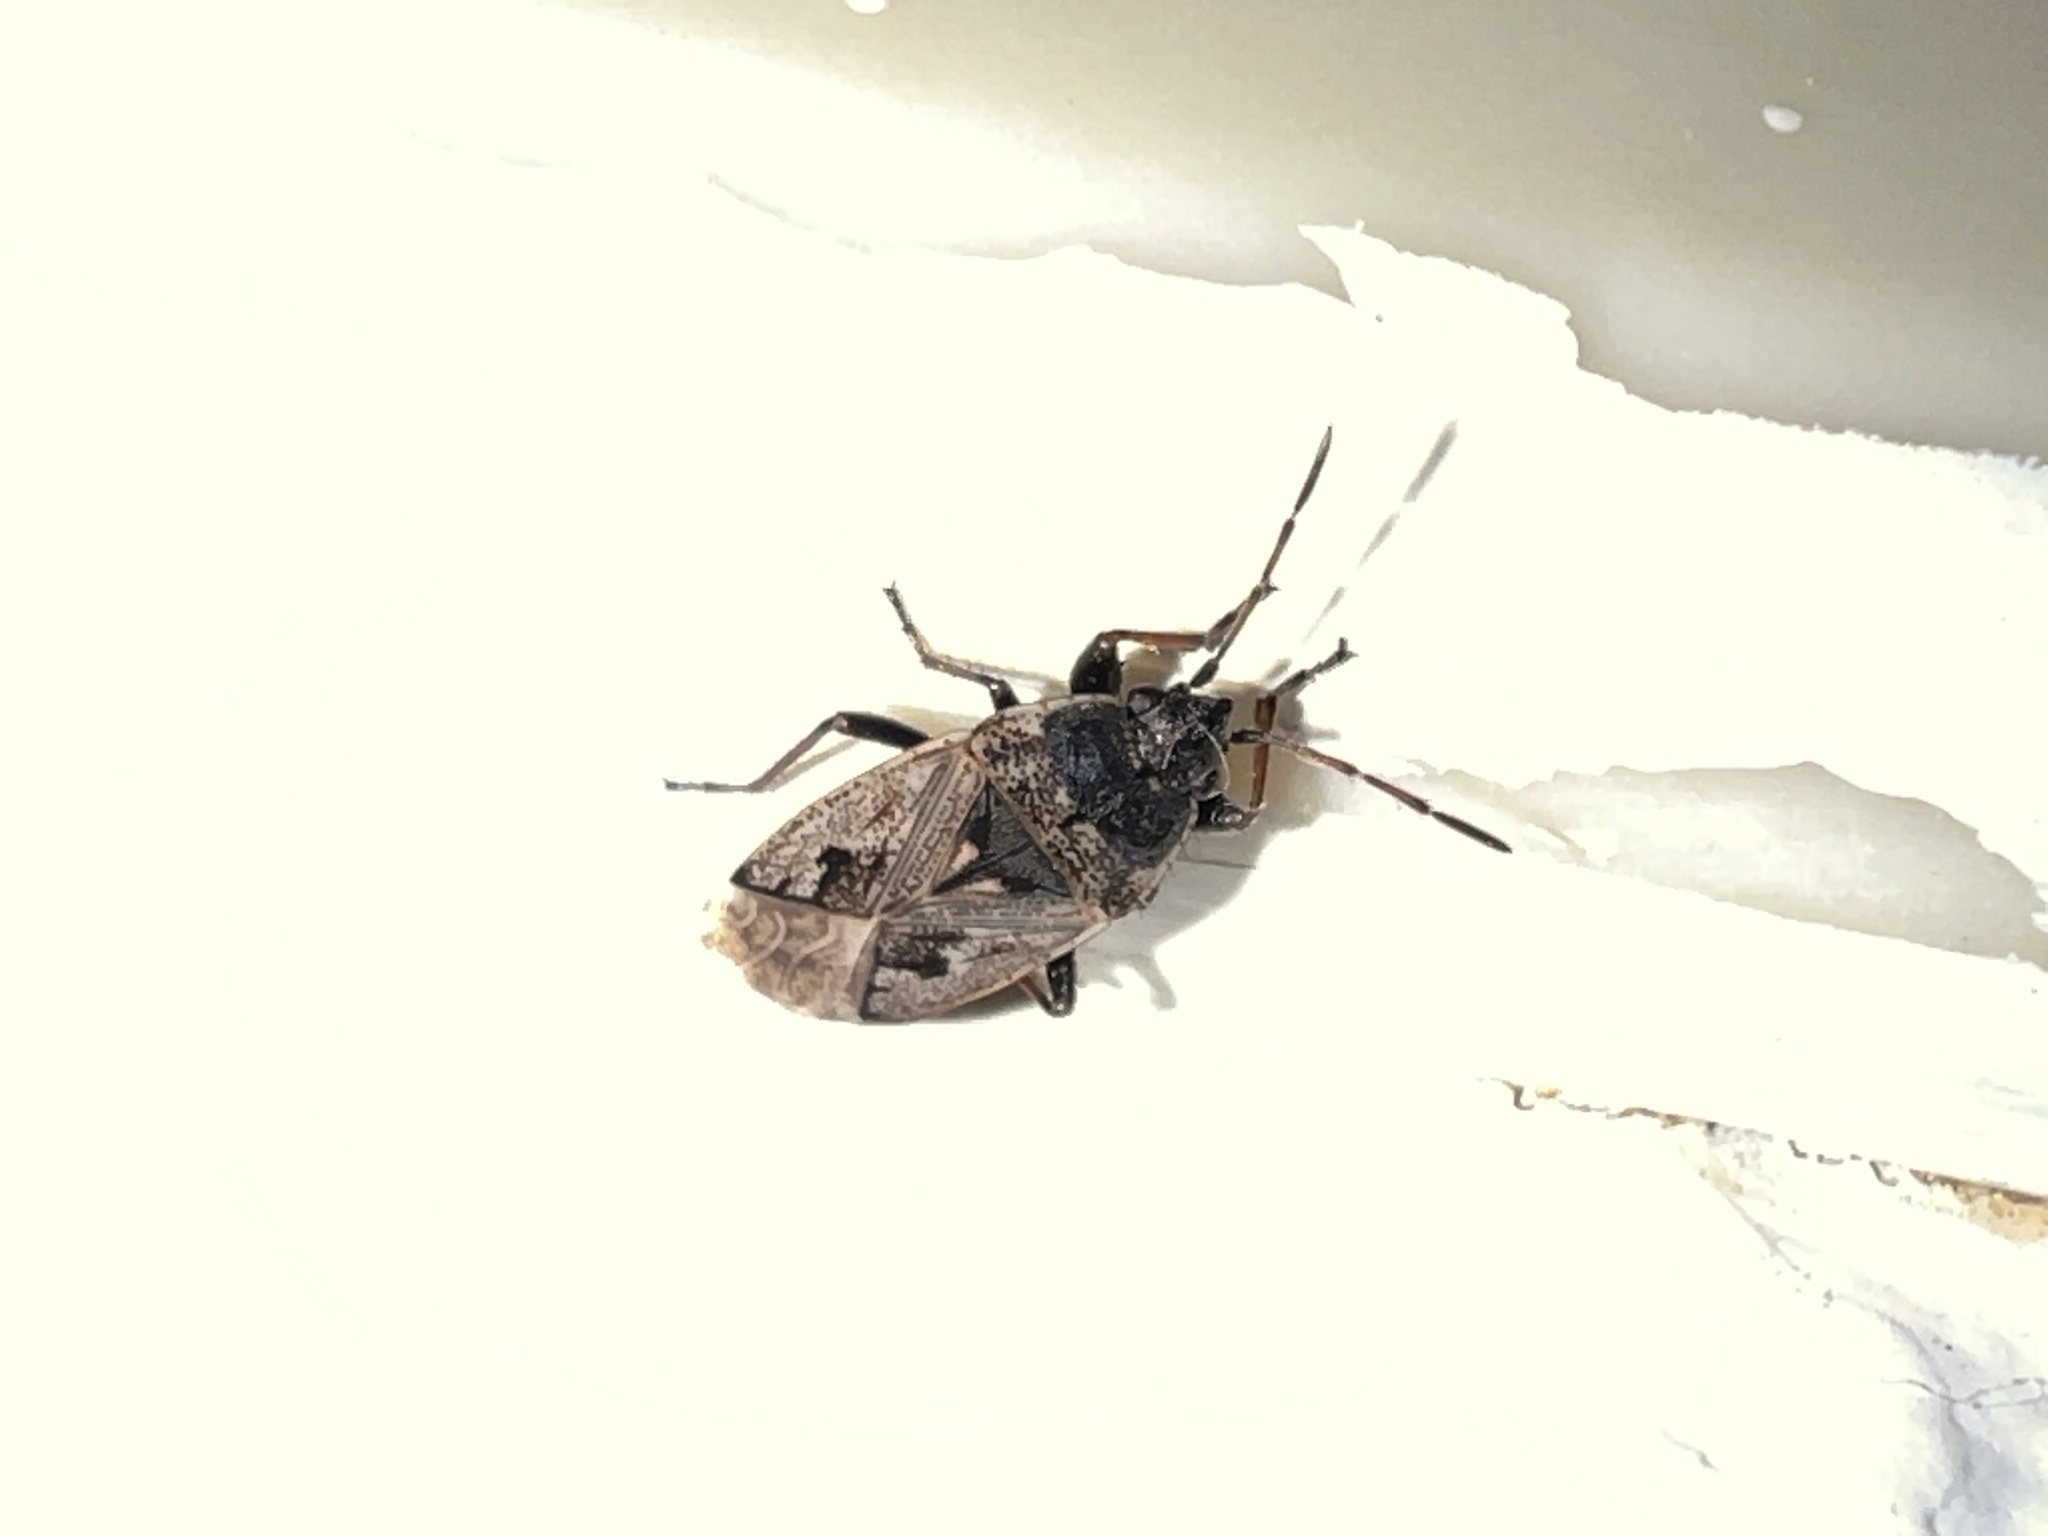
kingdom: Animalia
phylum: Arthropoda
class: Insecta
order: Hemiptera
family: Rhyparochromidae
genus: Sphragisticus
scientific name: Sphragisticus nebulosus
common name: Dirt-colored seed bug
